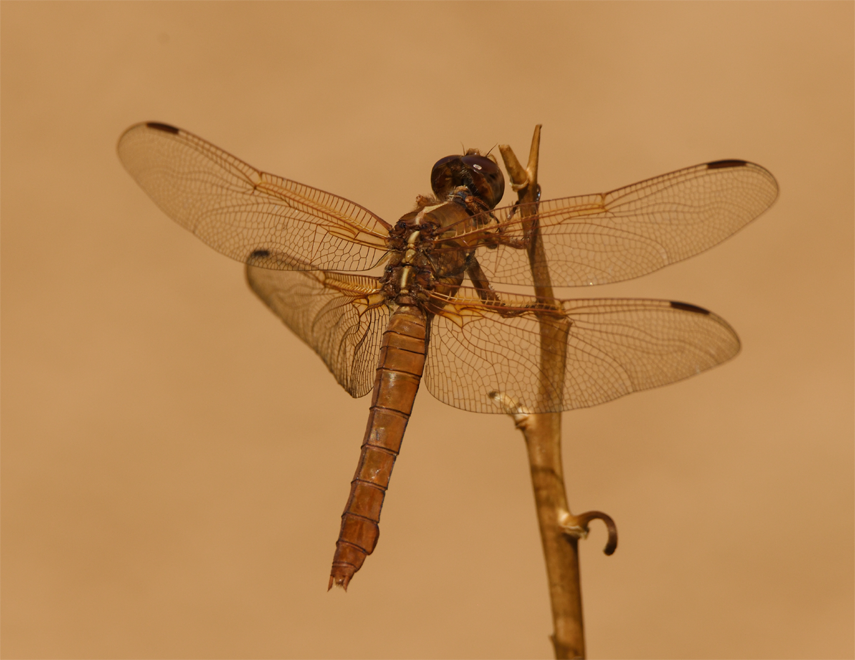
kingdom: Animalia
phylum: Arthropoda
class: Insecta
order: Odonata
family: Libellulidae
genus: Libellula
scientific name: Libellula saturata
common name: Flame skimmer
